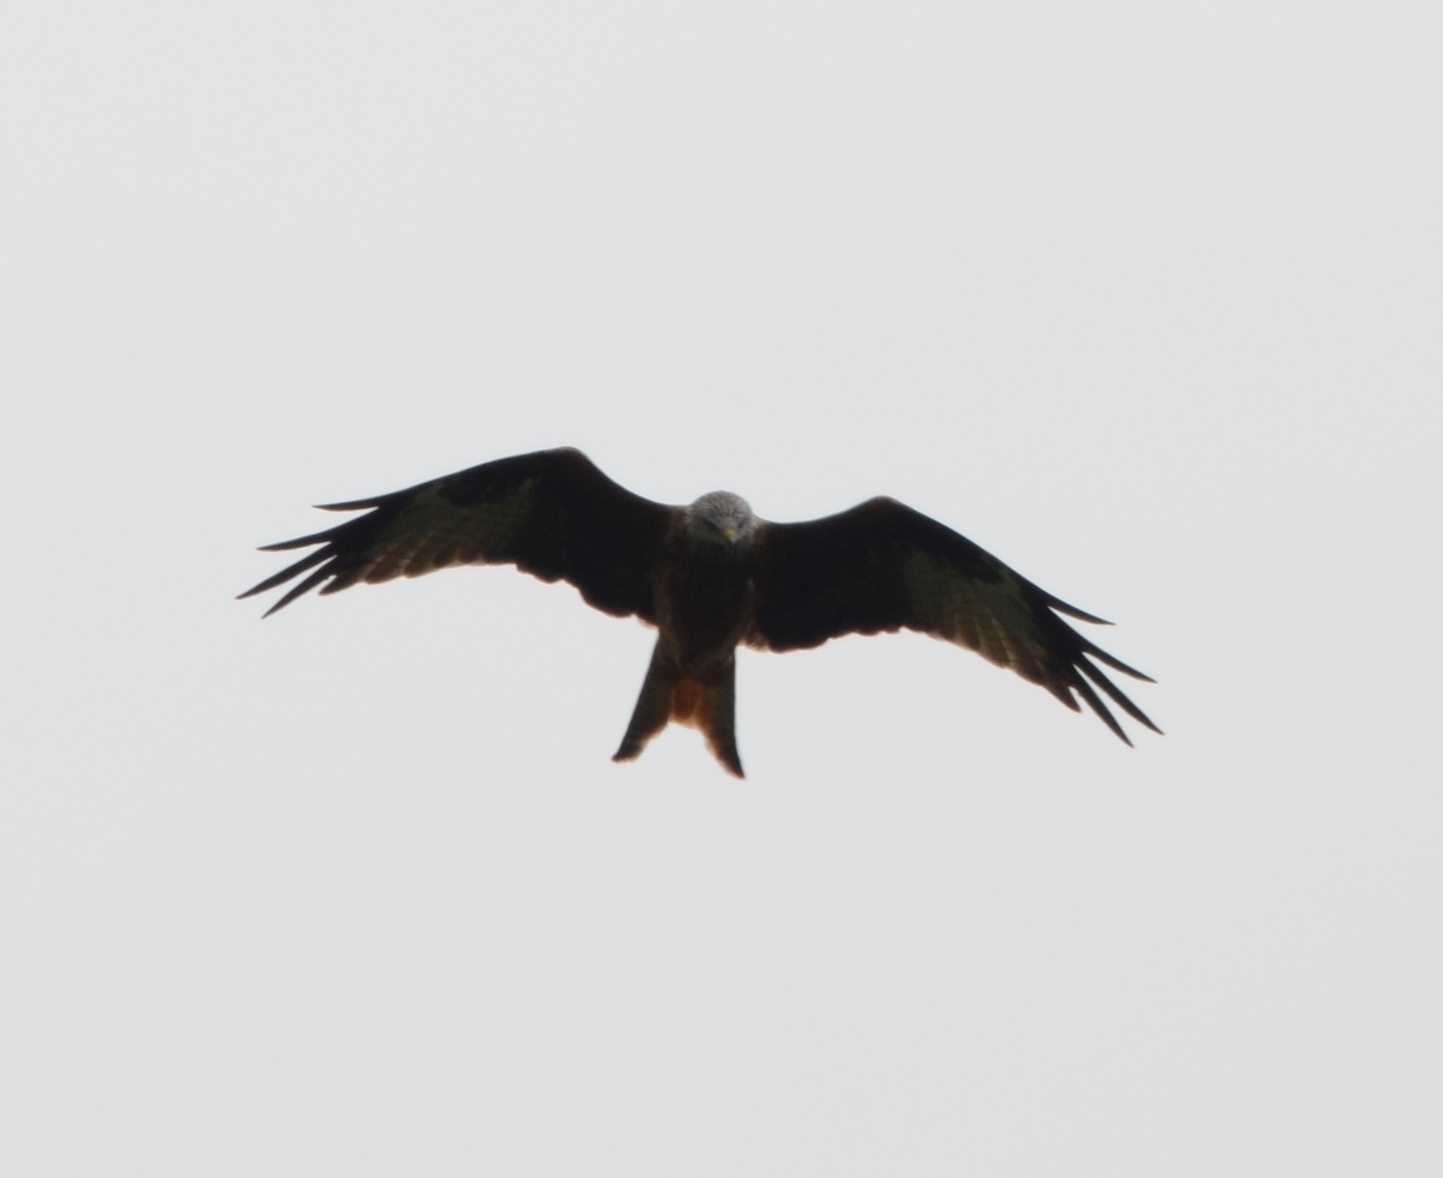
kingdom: Animalia
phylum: Chordata
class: Aves
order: Accipitriformes
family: Accipitridae
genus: Milvus
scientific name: Milvus milvus
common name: Red kite
